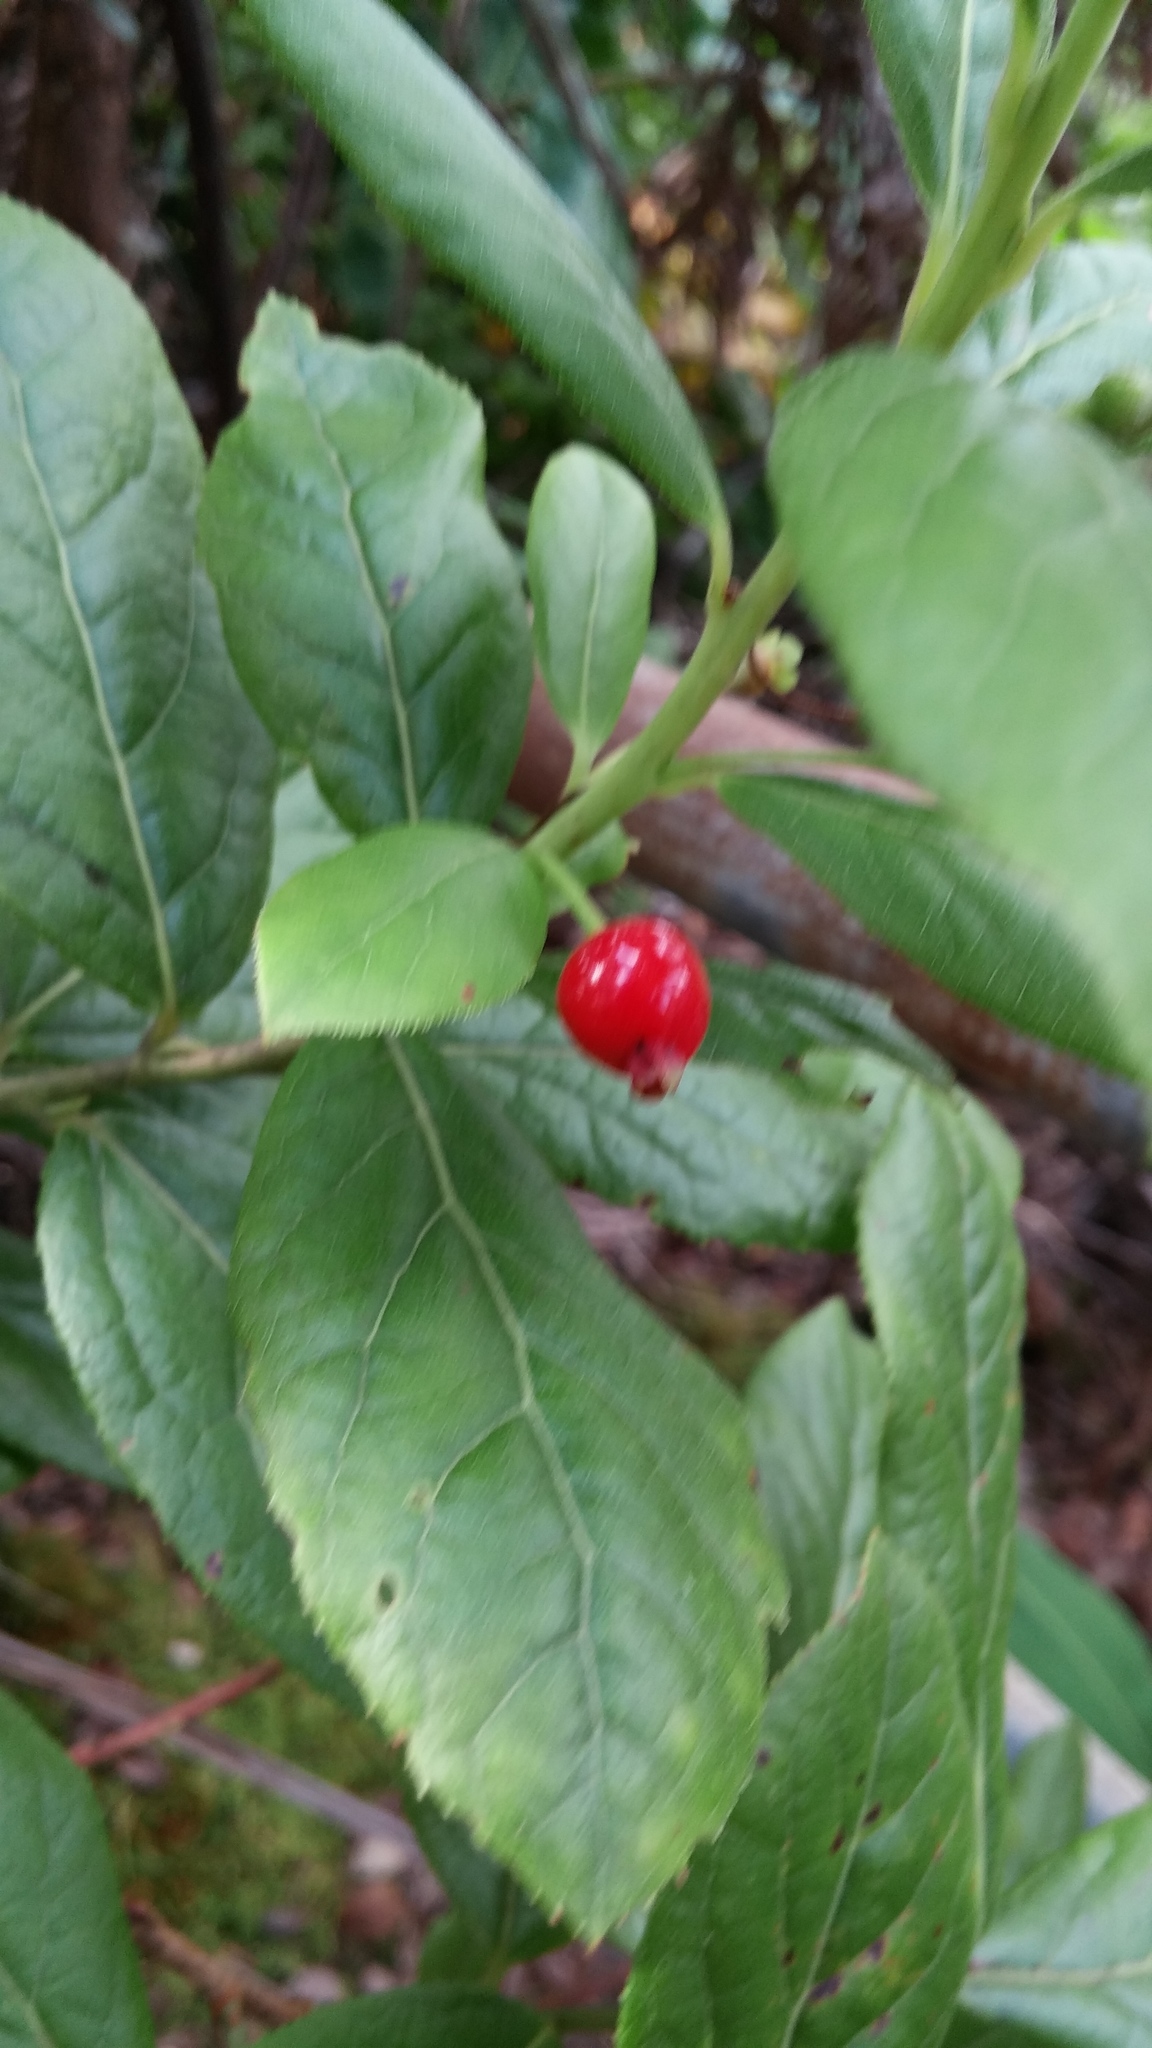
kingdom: Plantae
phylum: Tracheophyta
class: Magnoliopsida
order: Ericales
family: Ericaceae
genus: Vaccinium
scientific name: Vaccinium calycinum
